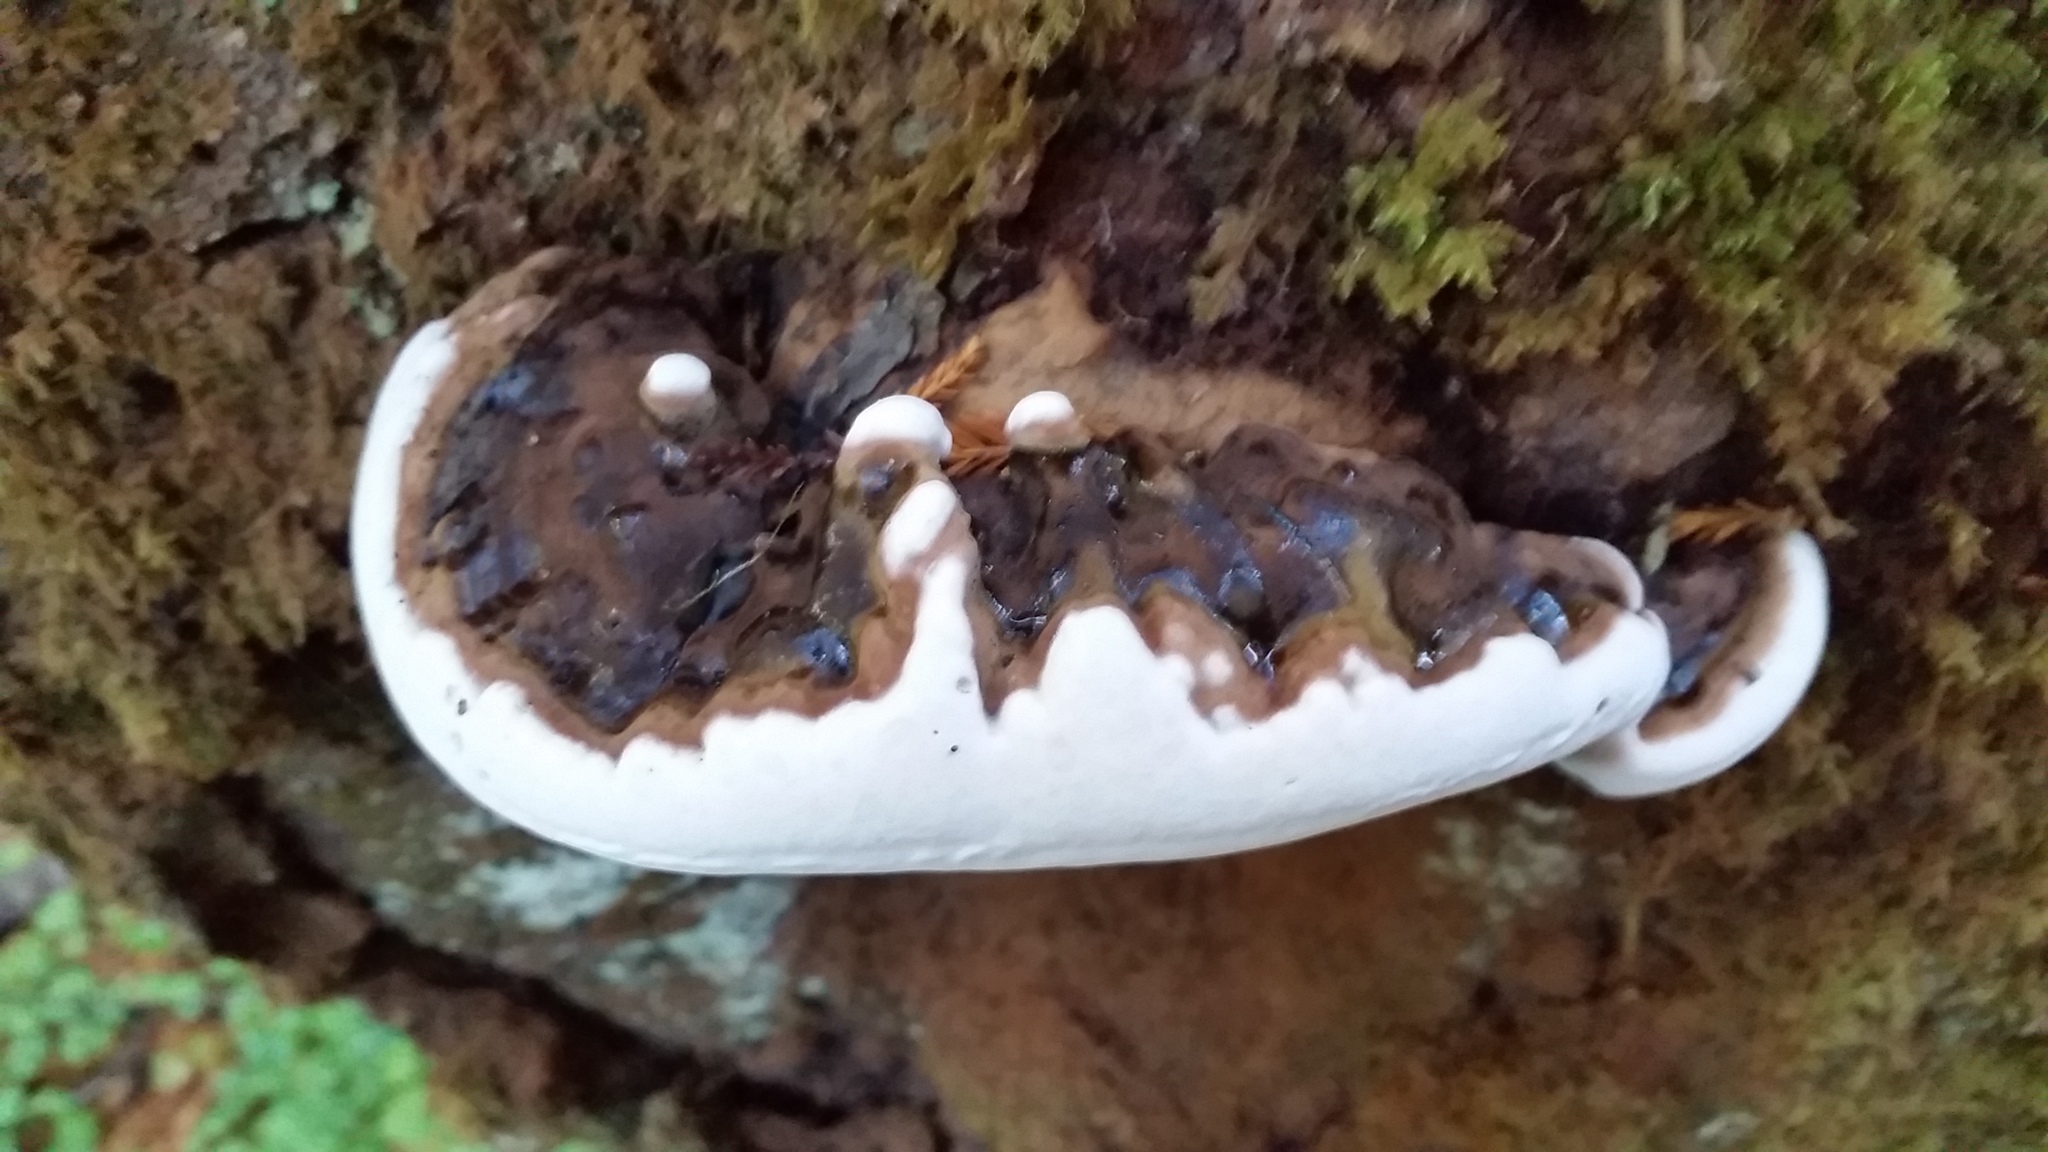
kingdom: Fungi
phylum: Basidiomycota
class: Agaricomycetes
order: Polyporales
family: Fomitopsidaceae
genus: Fomitopsis
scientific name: Fomitopsis ochracea
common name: American brown fomitopsis
